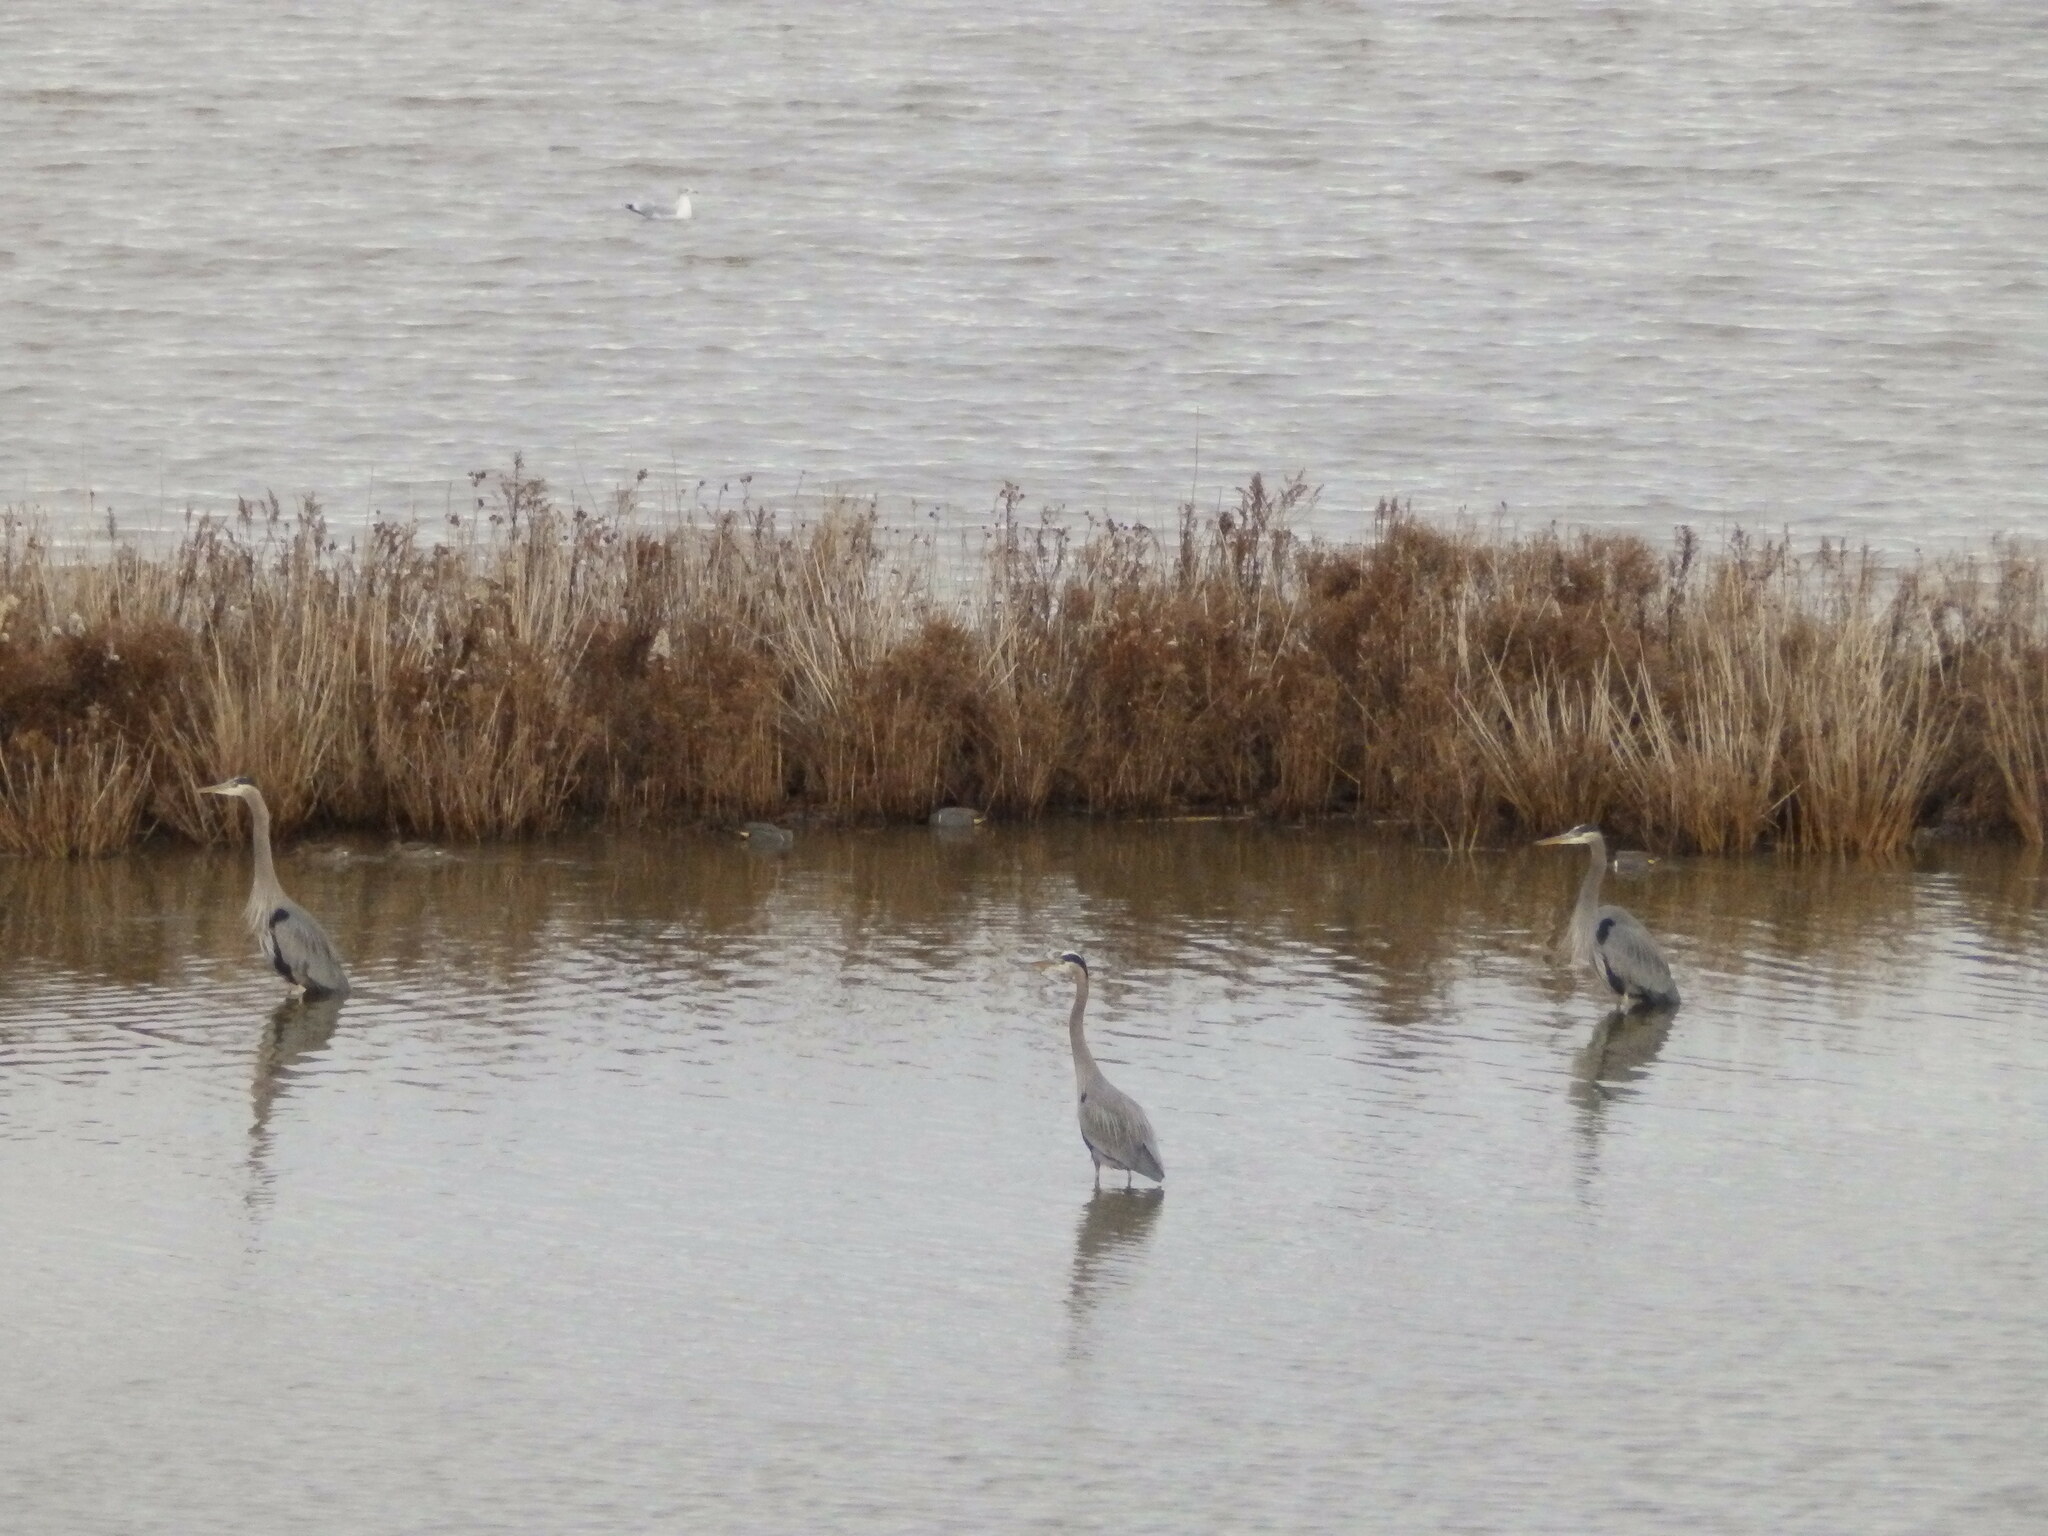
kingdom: Animalia
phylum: Chordata
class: Aves
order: Pelecaniformes
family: Ardeidae
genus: Ardea
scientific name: Ardea herodias
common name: Great blue heron
